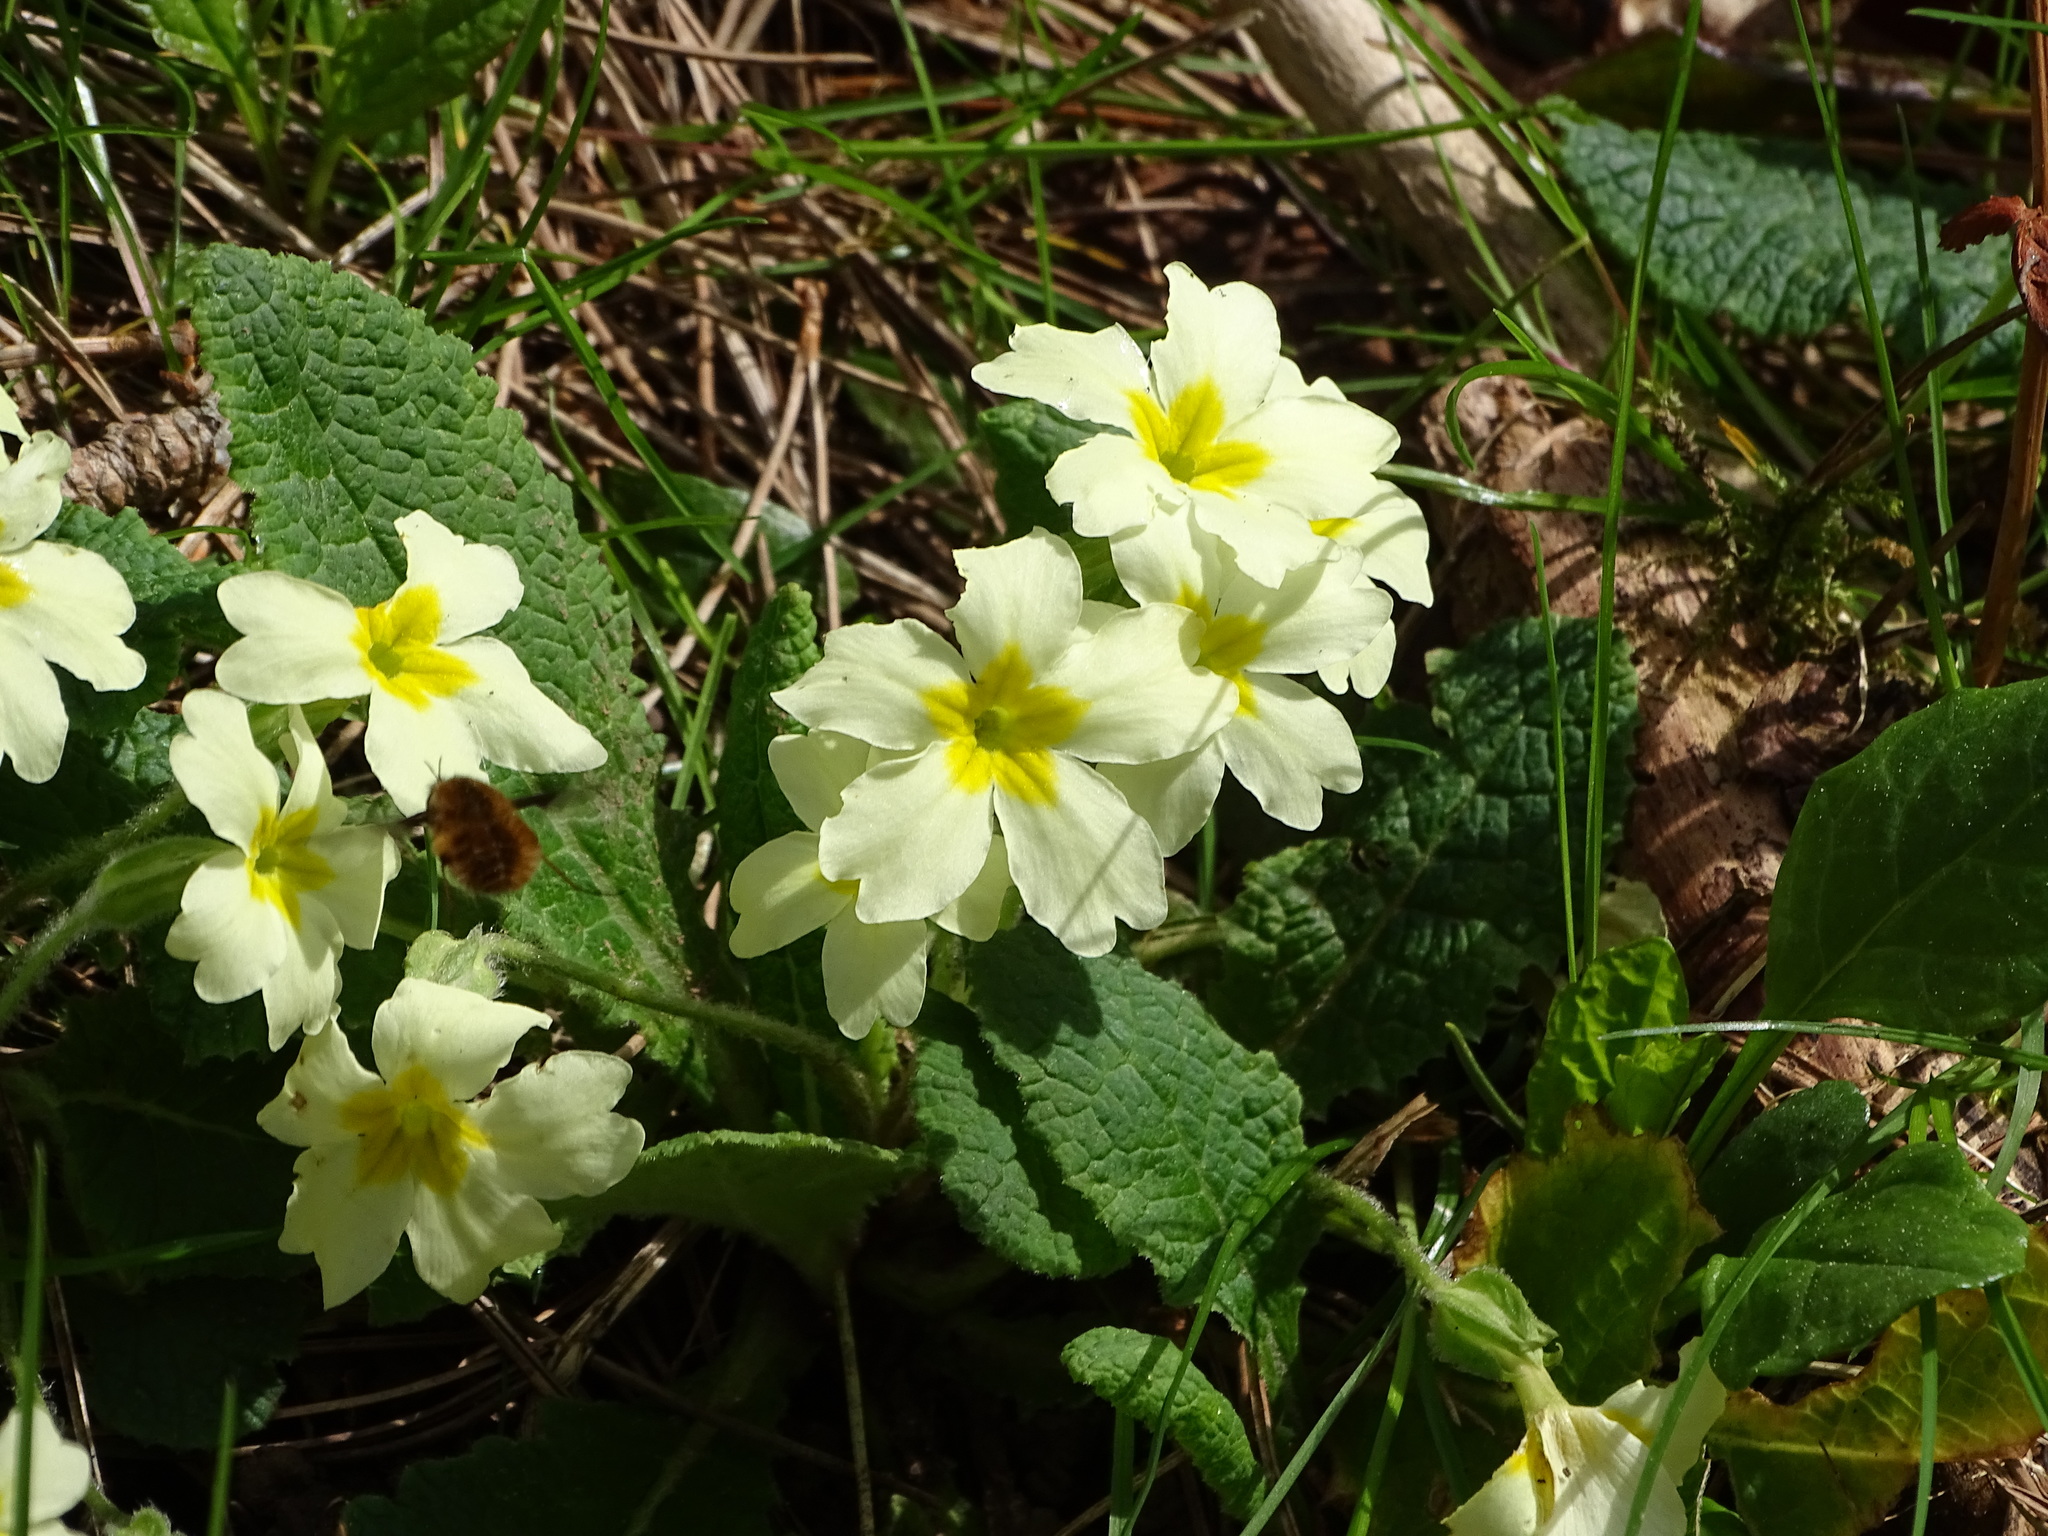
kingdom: Plantae
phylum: Tracheophyta
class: Magnoliopsida
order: Ericales
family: Primulaceae
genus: Primula
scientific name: Primula vulgaris
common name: Primrose
